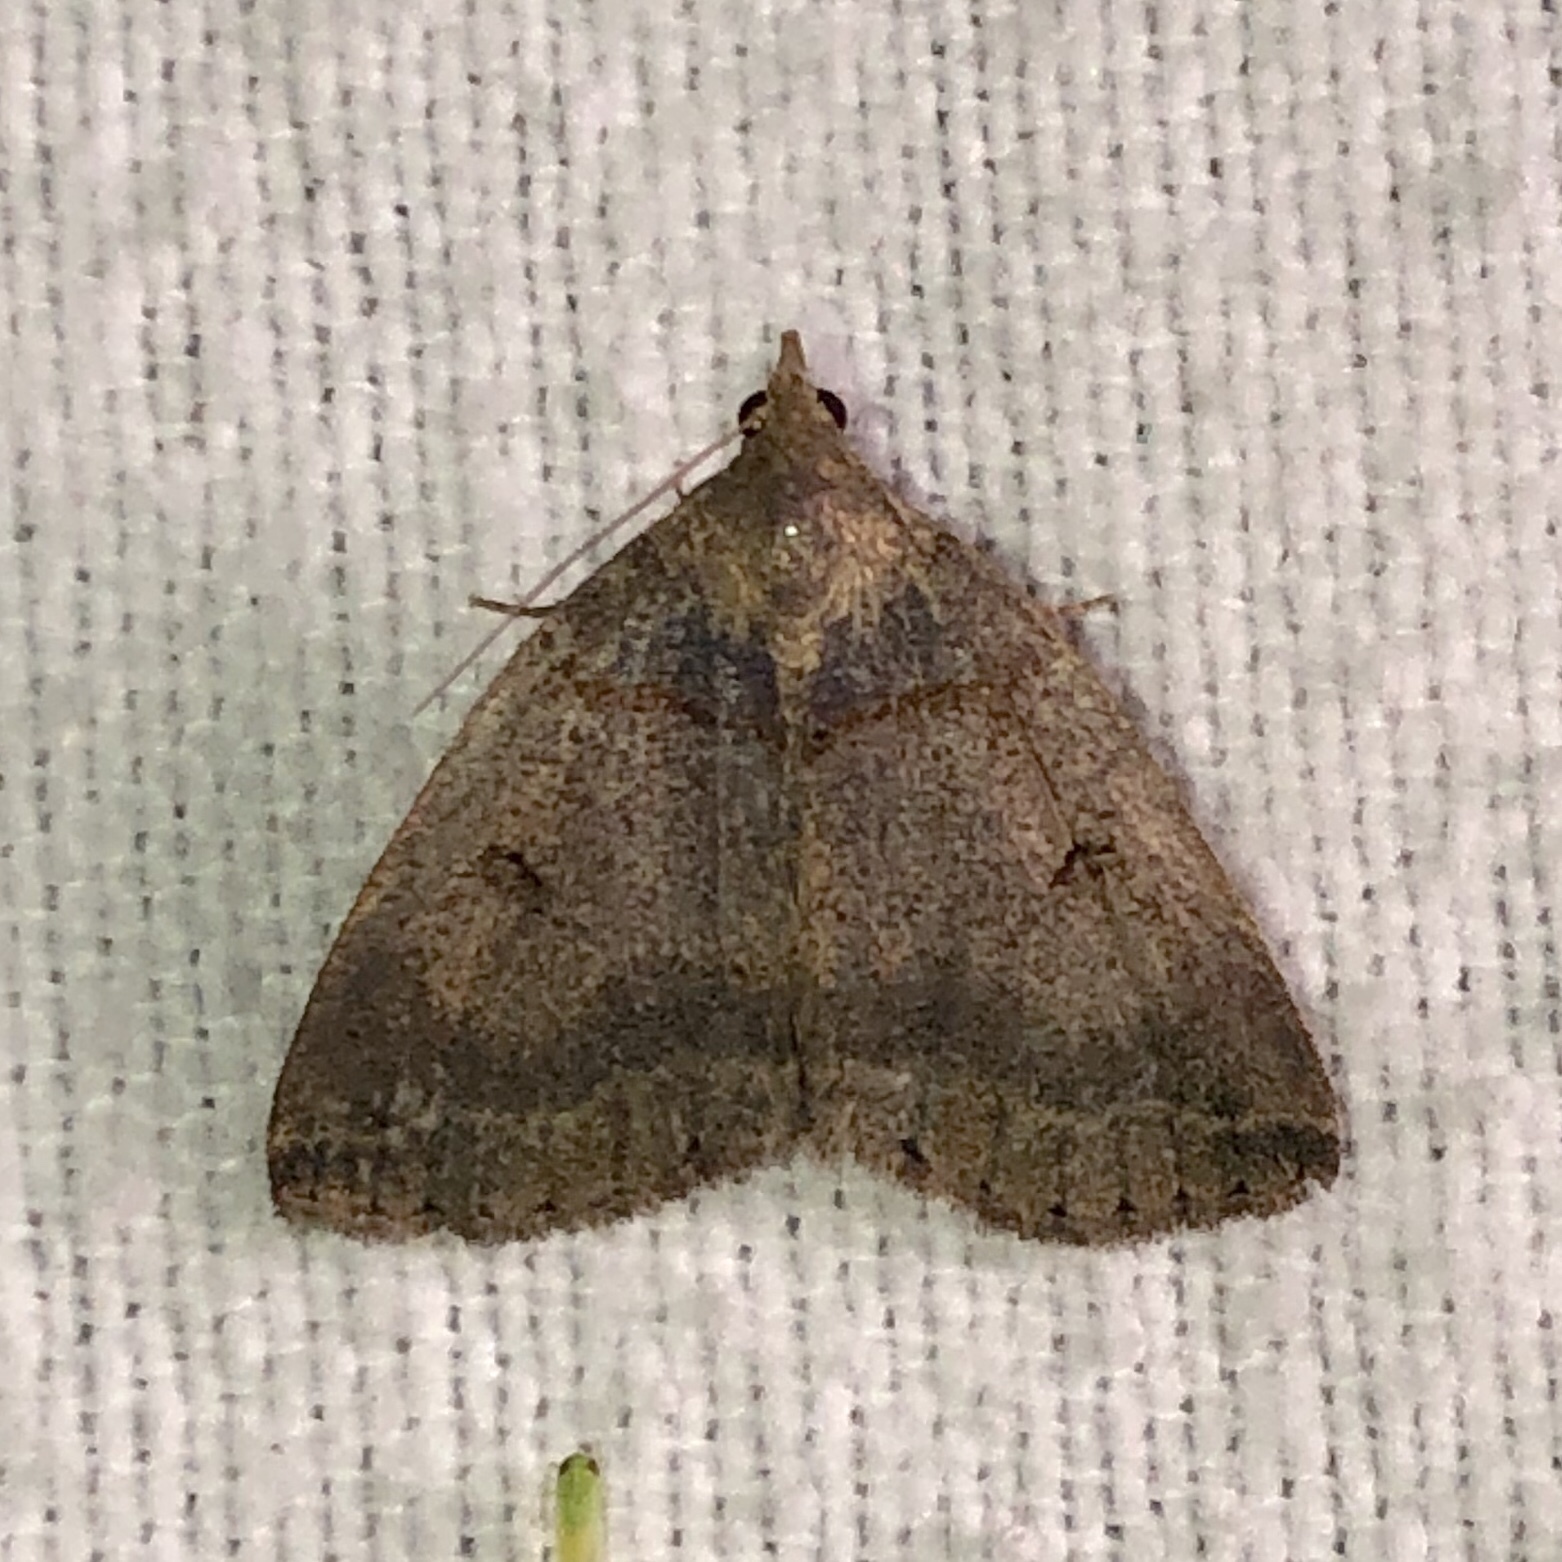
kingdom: Animalia
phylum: Arthropoda
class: Insecta
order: Lepidoptera
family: Erebidae
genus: Zanclognatha
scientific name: Zanclognatha laevigata
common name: Variable fan-foot
